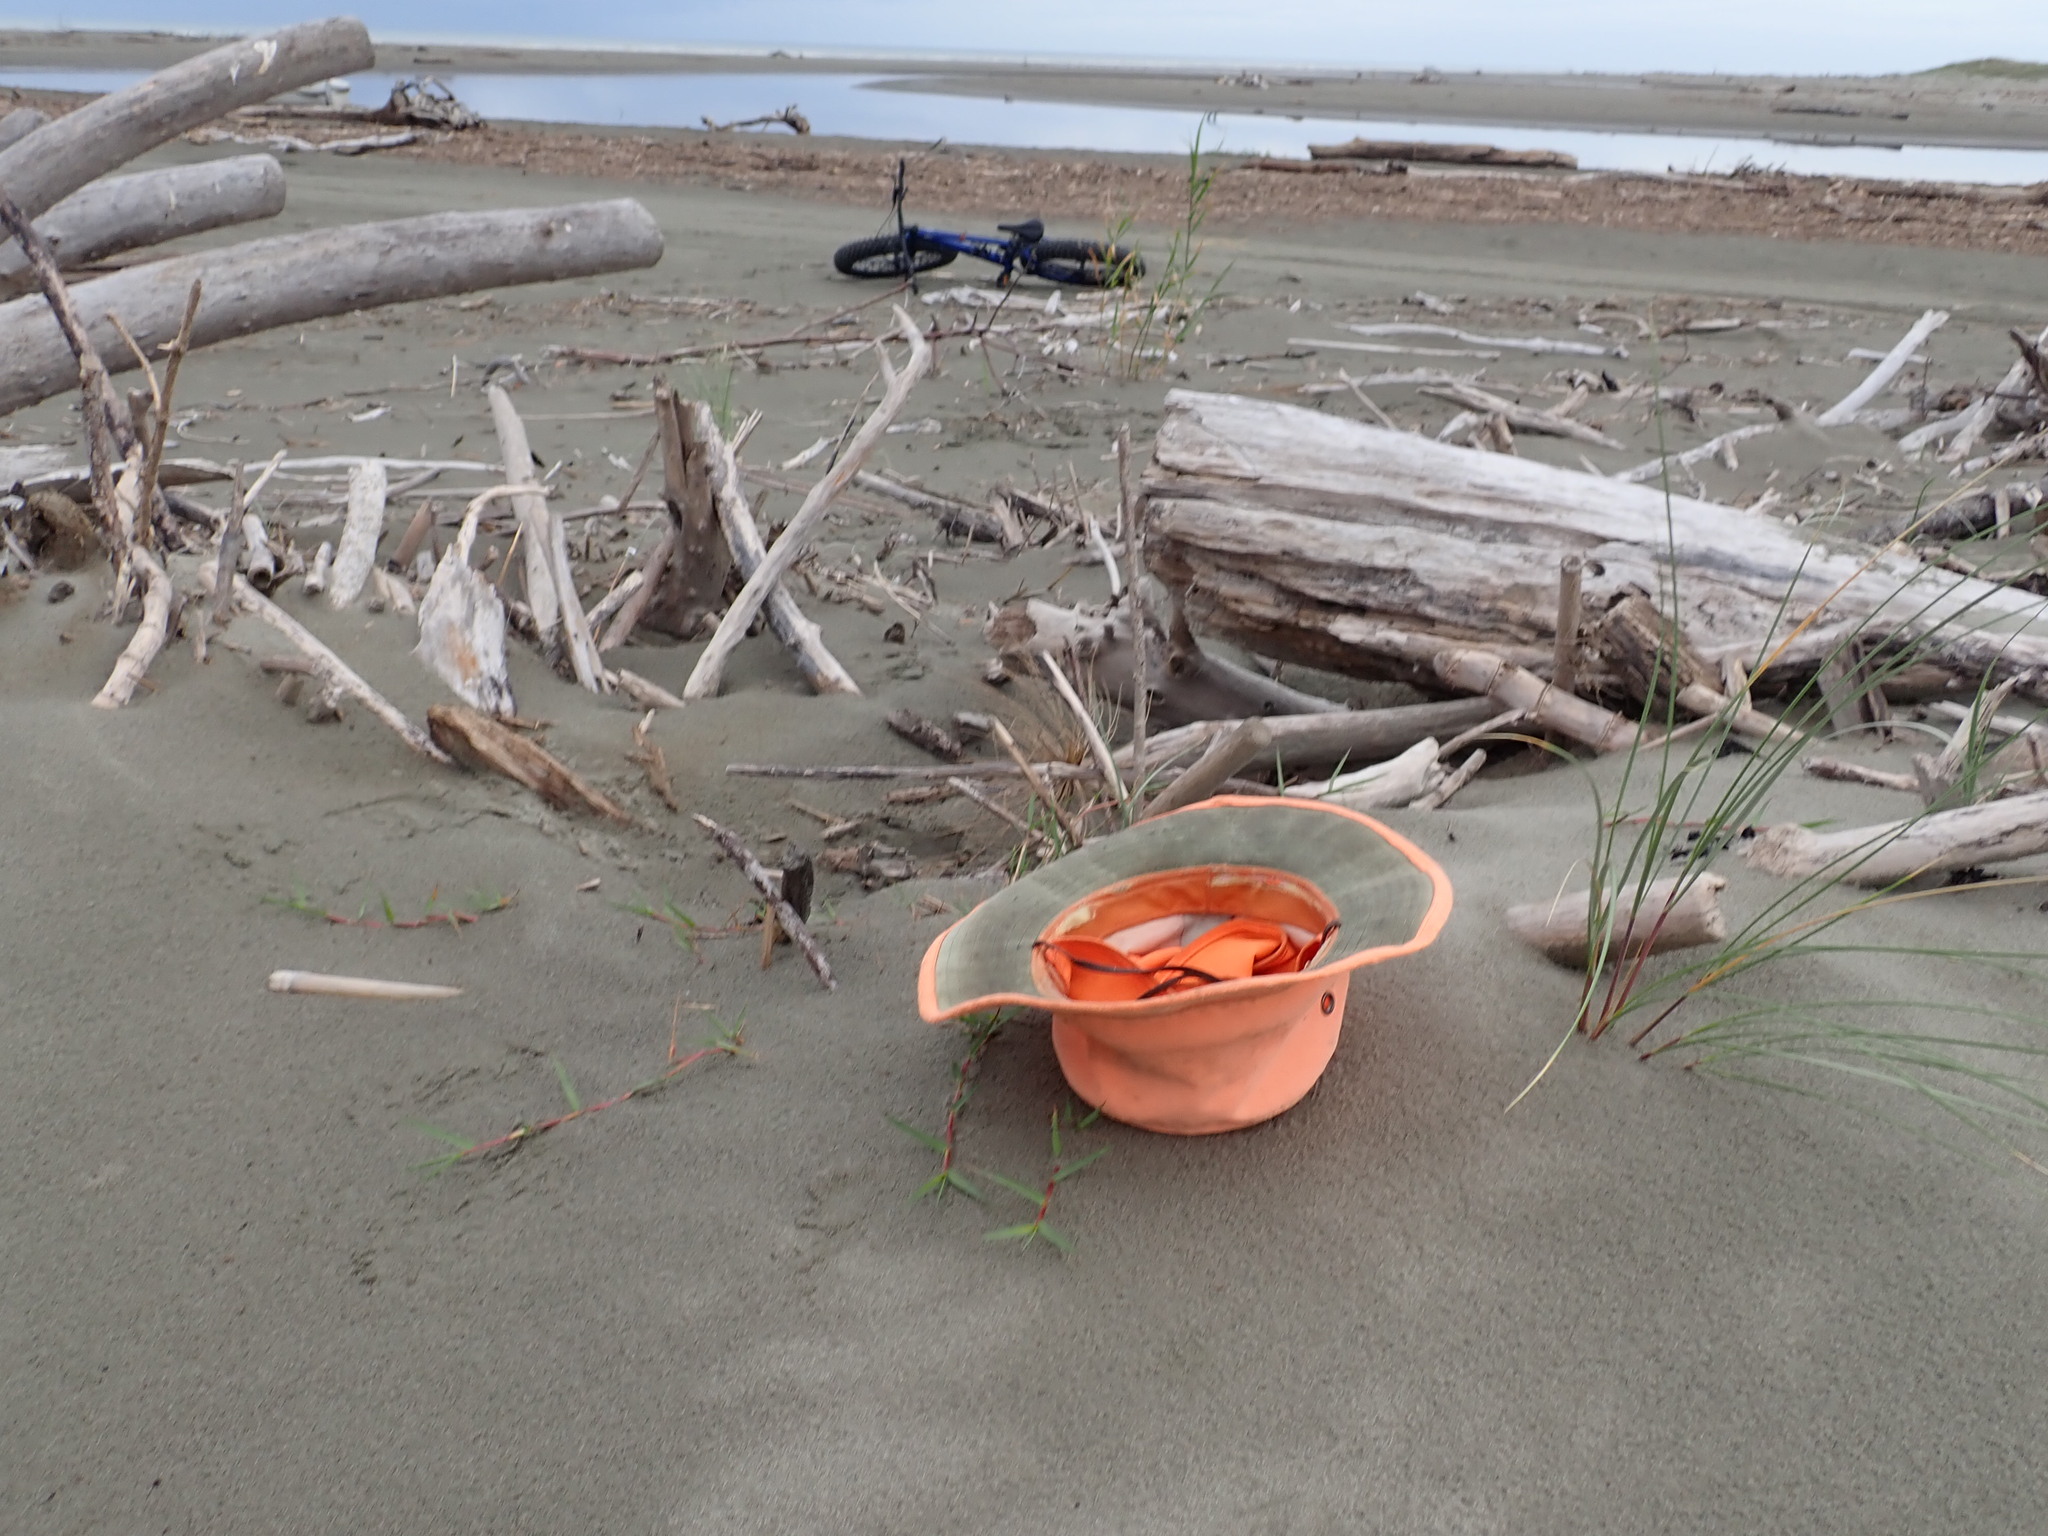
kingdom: Plantae
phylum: Tracheophyta
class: Liliopsida
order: Poales
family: Poaceae
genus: Stenotaphrum
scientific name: Stenotaphrum secundatum
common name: St. augustine grass
